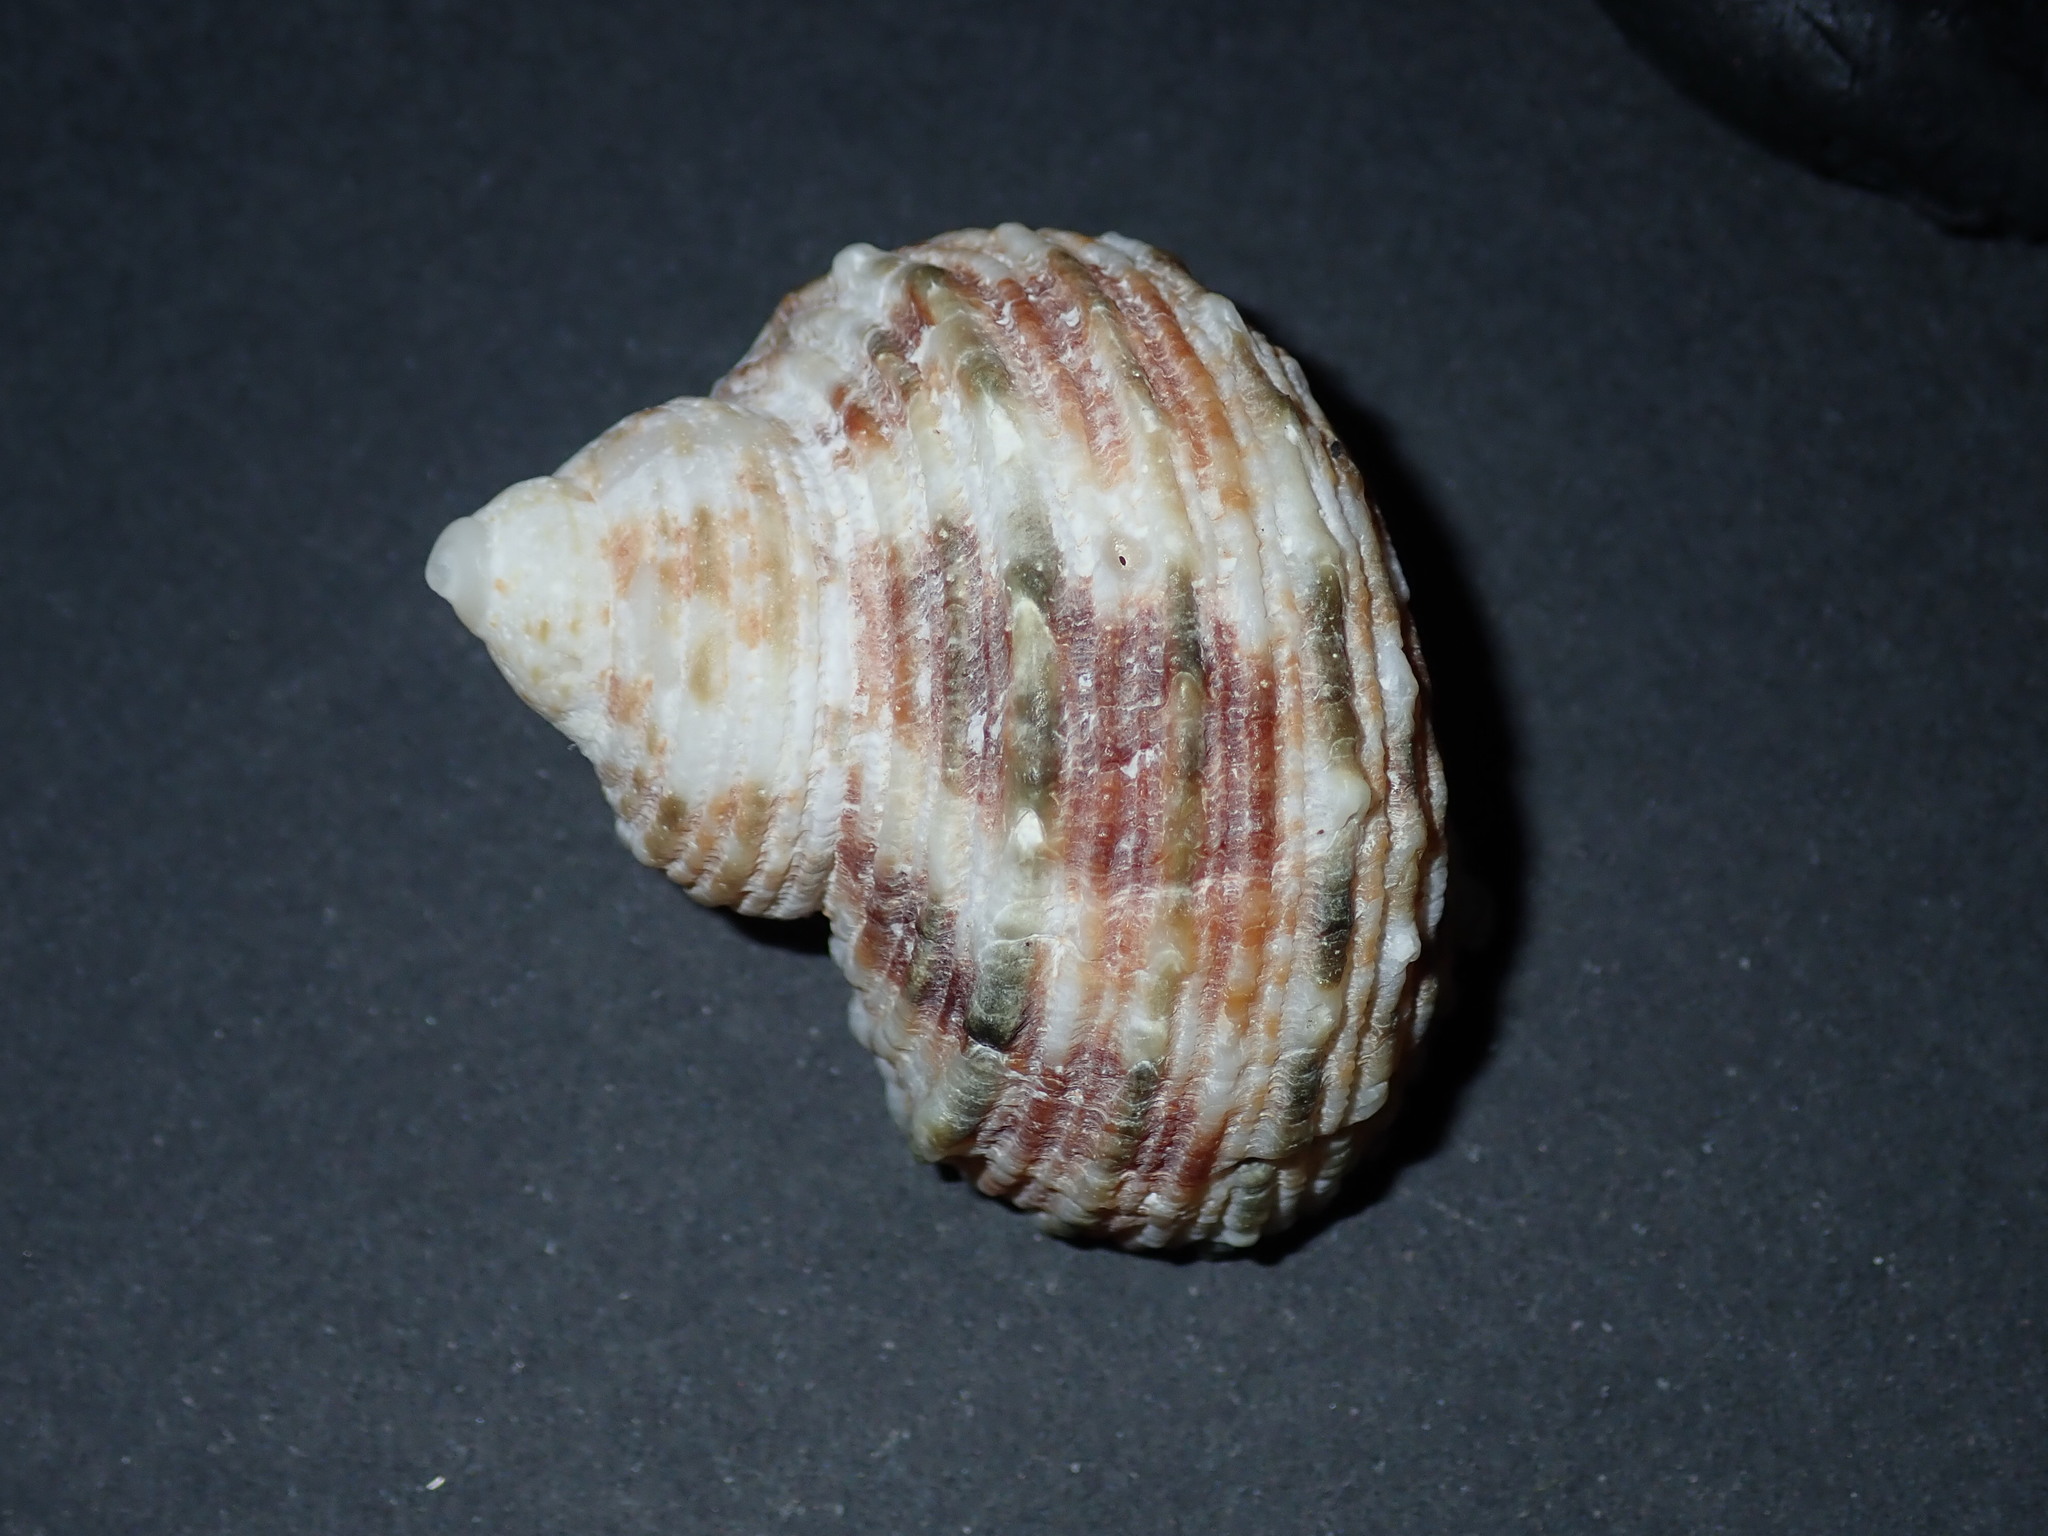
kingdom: Animalia
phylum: Mollusca
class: Gastropoda
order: Trochida
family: Turbinidae
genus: Turbo
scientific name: Turbo argyrostomus
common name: Silver-mouthed turban
